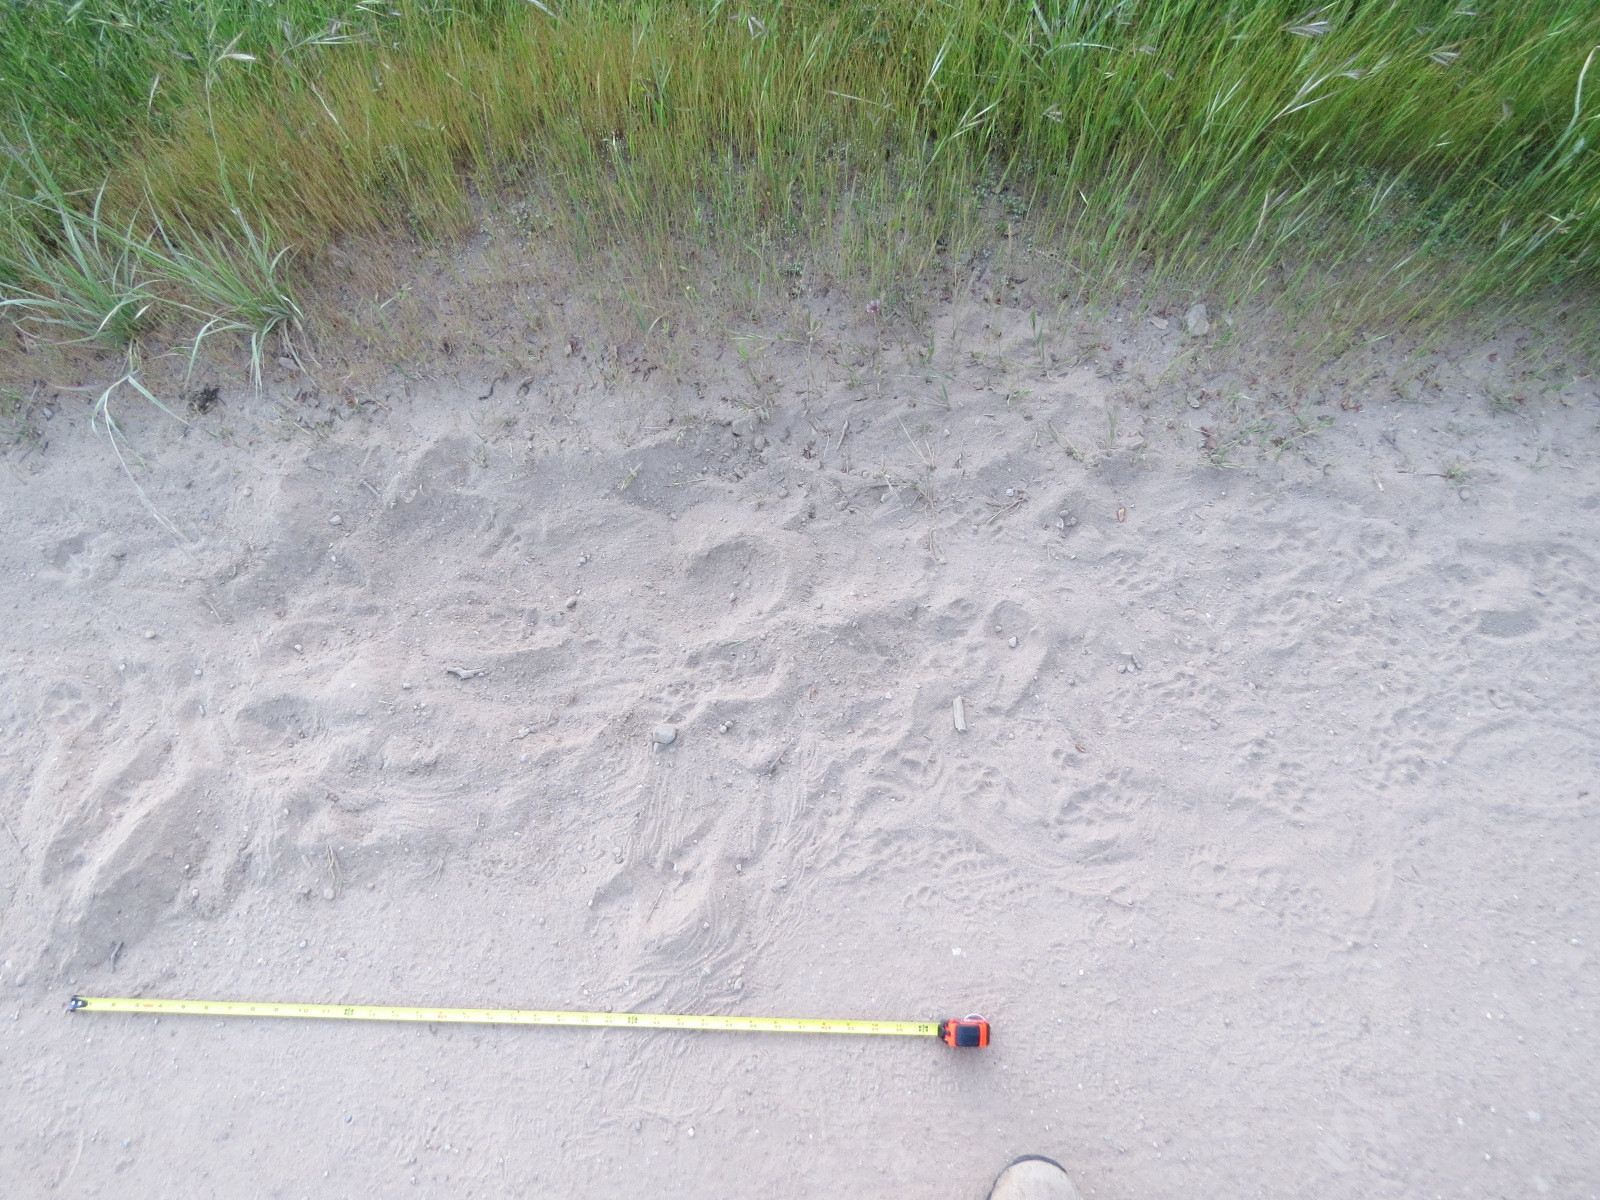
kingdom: Animalia
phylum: Chordata
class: Mammalia
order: Carnivora
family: Mustelidae
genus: Taxidea
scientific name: Taxidea taxus
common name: American badger
